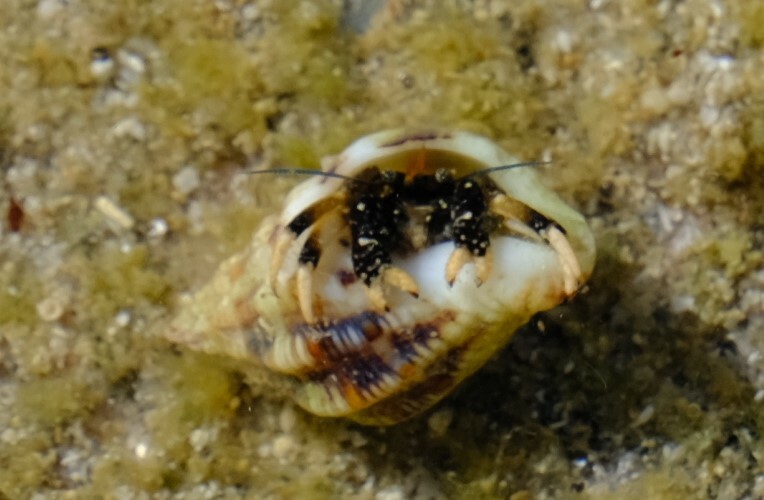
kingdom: Animalia
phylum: Arthropoda
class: Malacostraca
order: Decapoda
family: Diogenidae
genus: Clibanarius
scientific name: Clibanarius virescens
